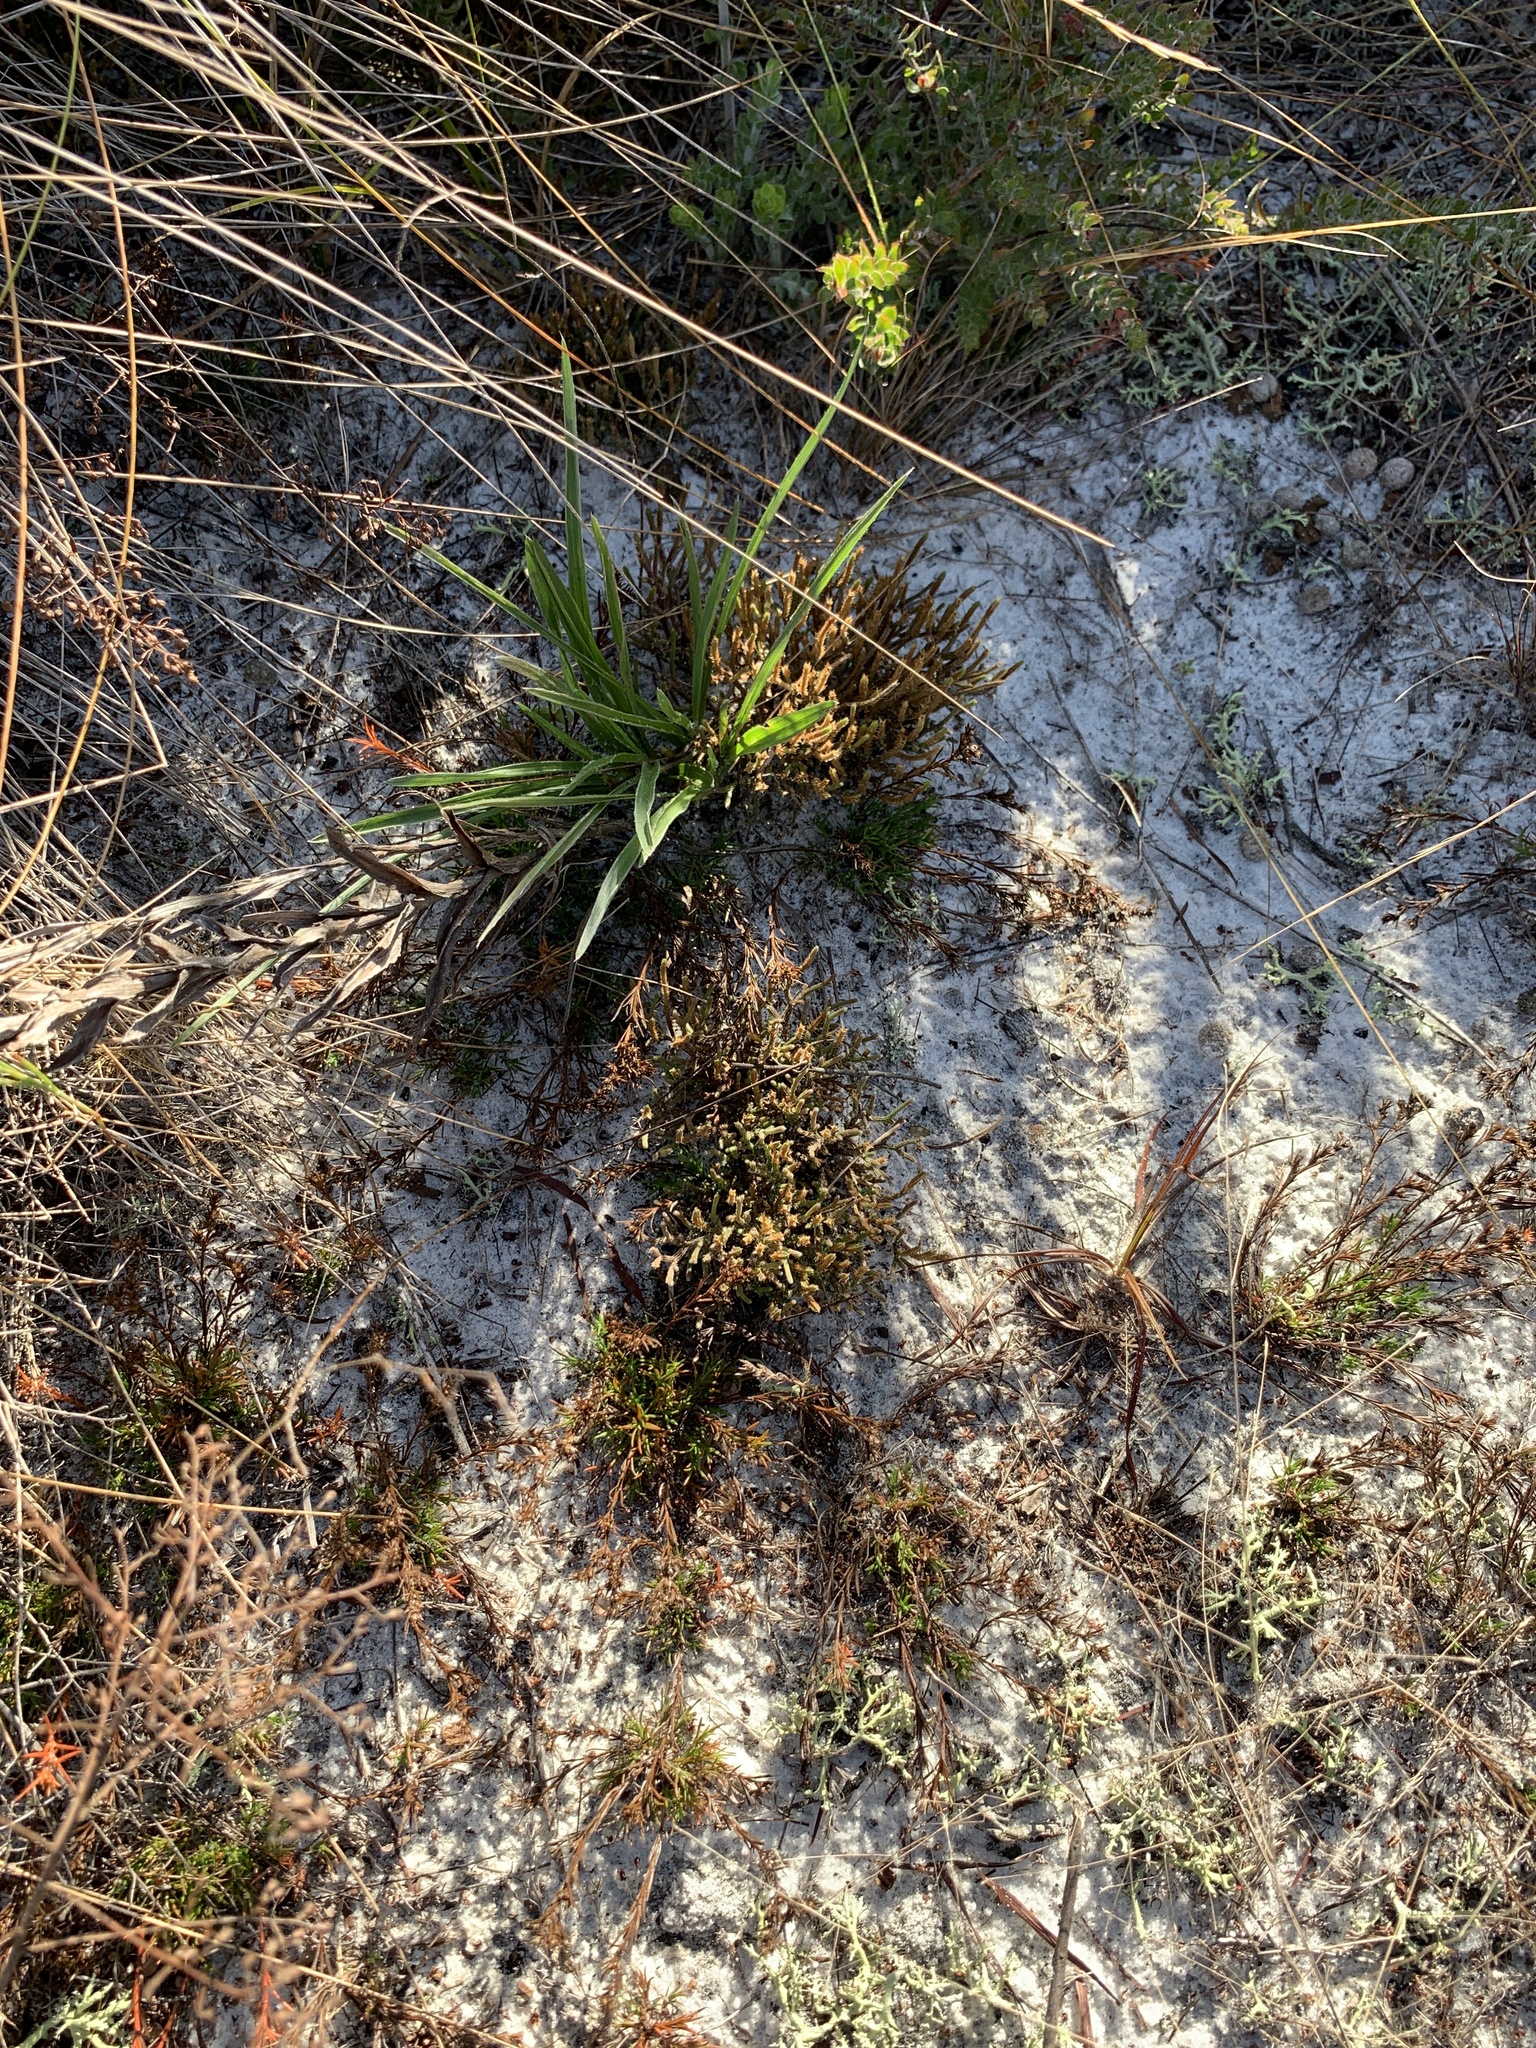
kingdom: Plantae
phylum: Tracheophyta
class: Lycopodiopsida
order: Selaginellales
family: Selaginellaceae
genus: Selaginella
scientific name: Selaginella arenicola
